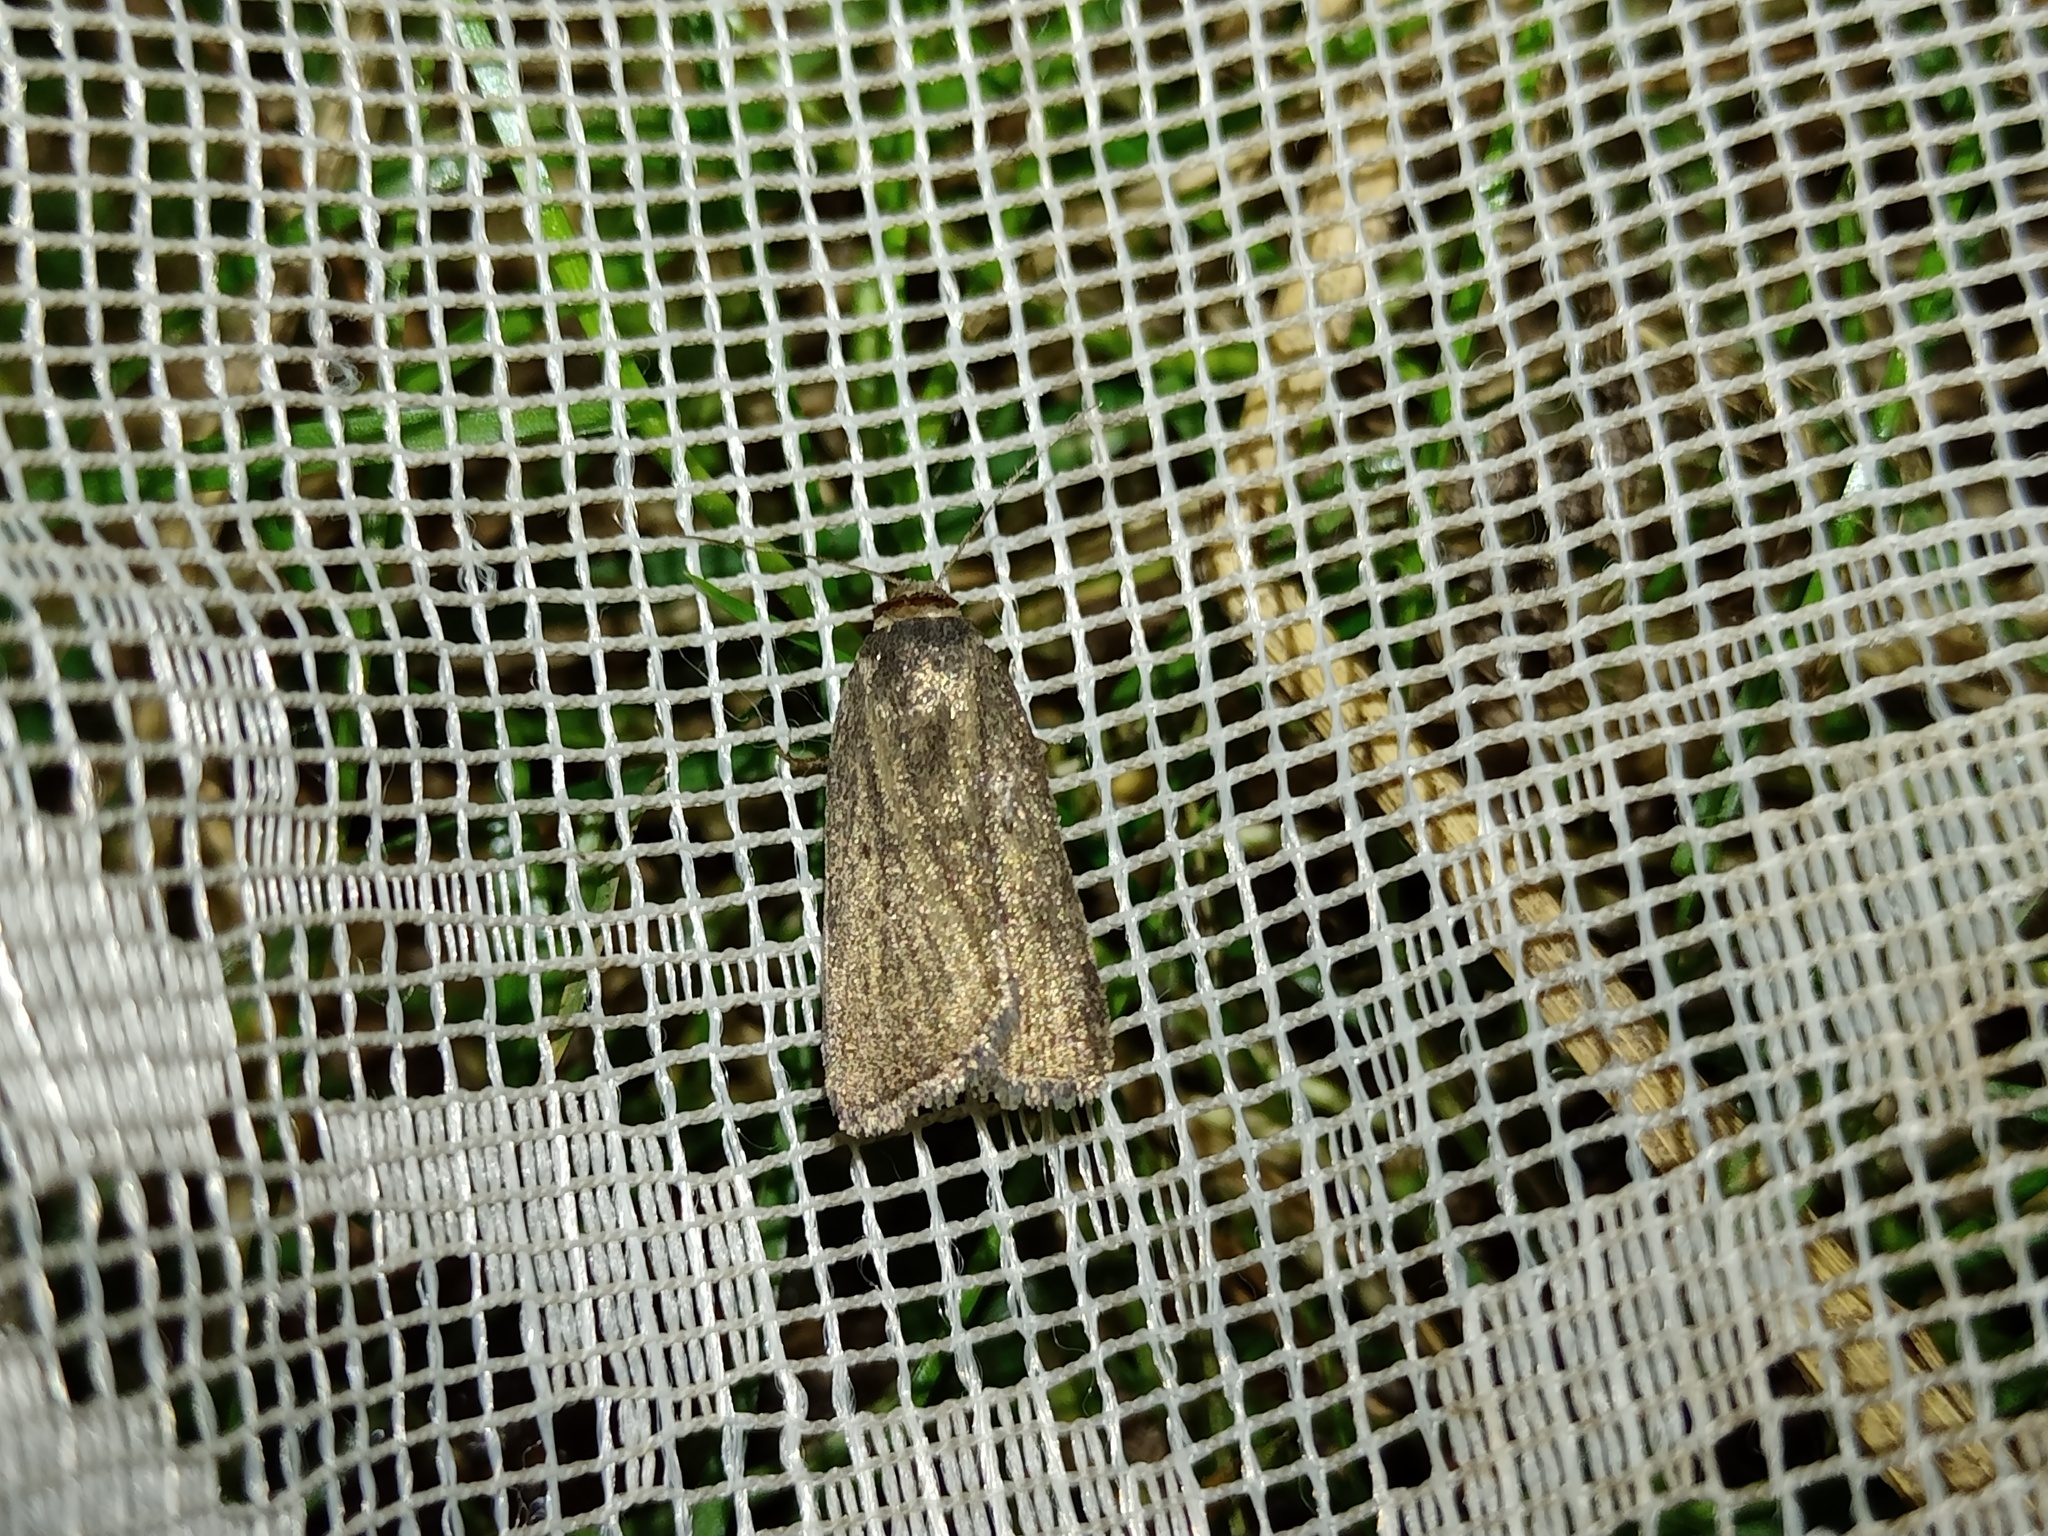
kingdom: Animalia
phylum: Arthropoda
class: Insecta
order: Lepidoptera
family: Noctuidae
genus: Athetis
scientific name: Athetis lepigone
